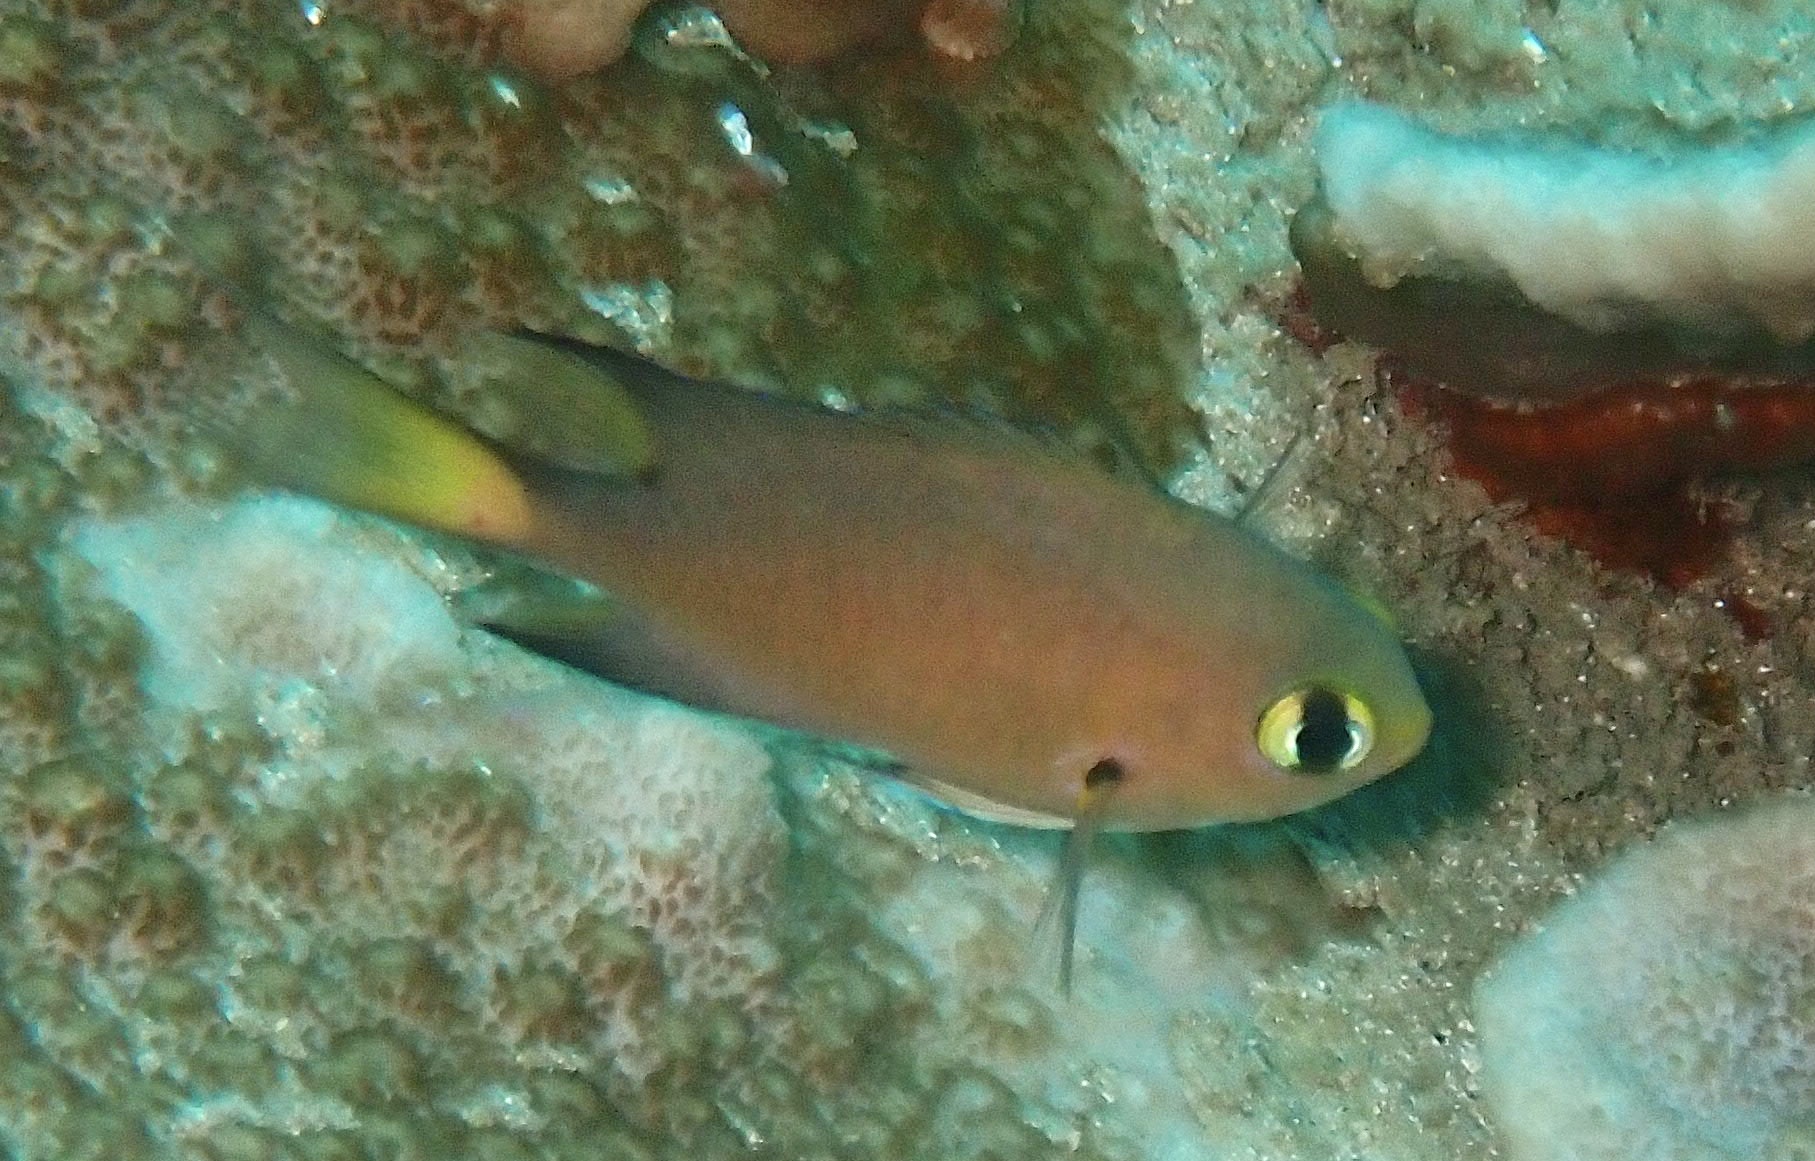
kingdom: Animalia
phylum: Chordata
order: Perciformes
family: Pomacentridae
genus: Chromis
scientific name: Chromis atripes
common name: Dark-fin chromis
